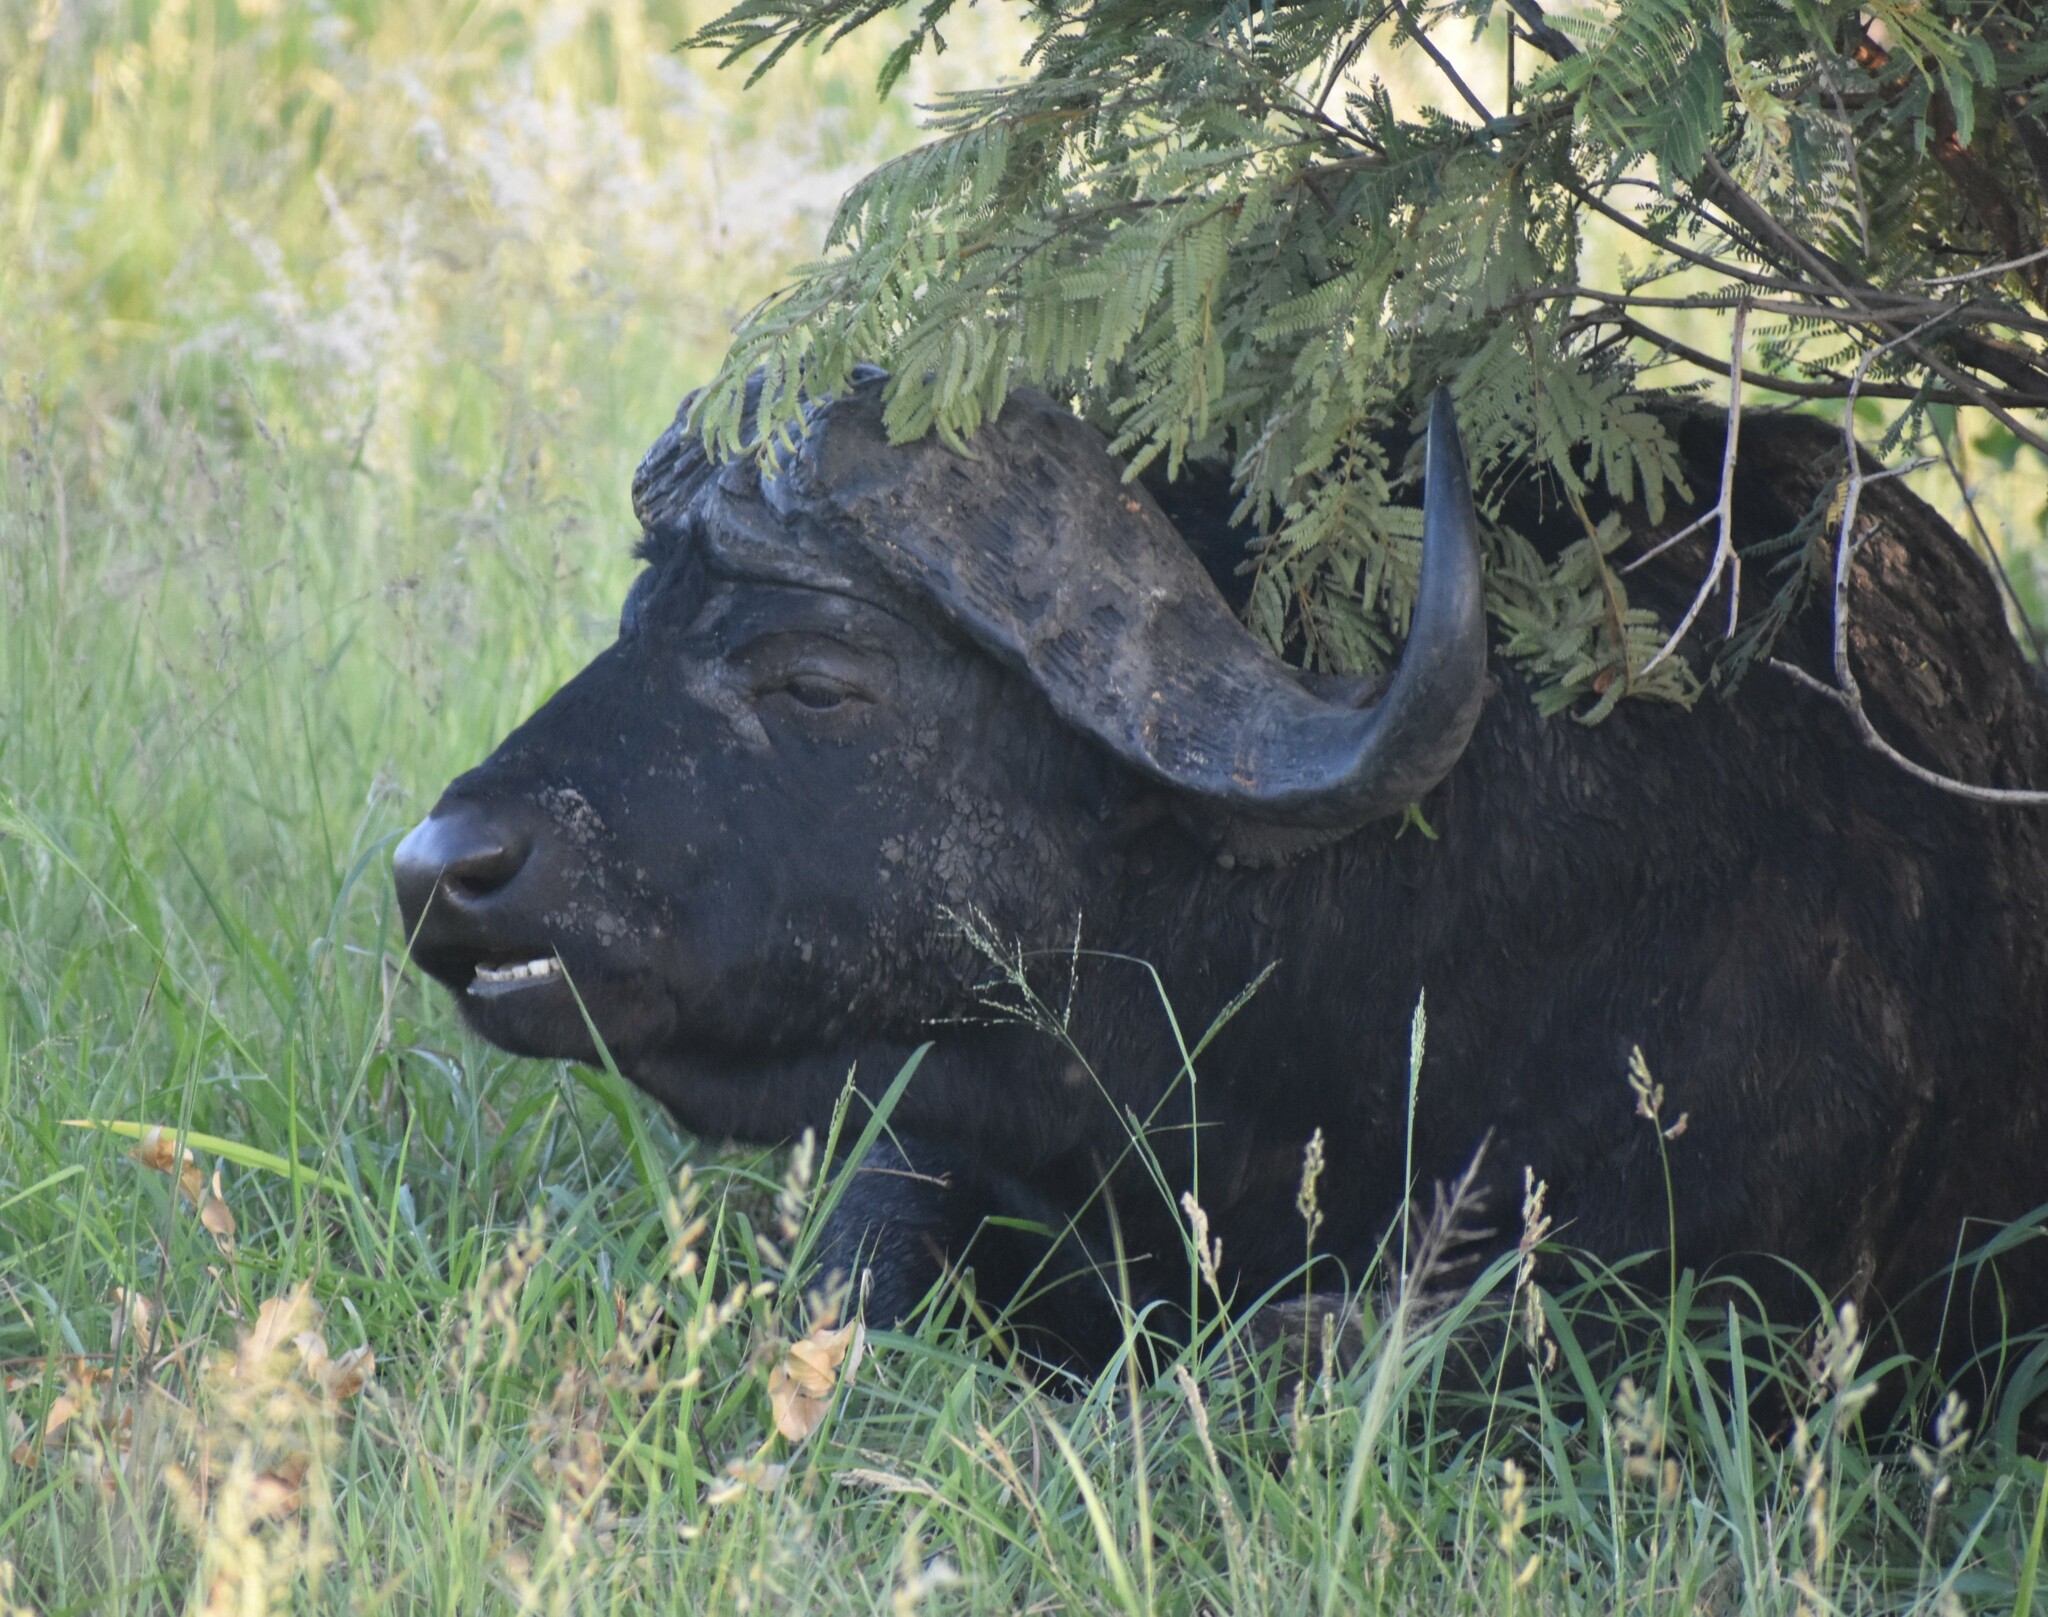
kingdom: Animalia
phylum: Chordata
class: Mammalia
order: Artiodactyla
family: Bovidae
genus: Syncerus
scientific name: Syncerus caffer
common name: African buffalo
